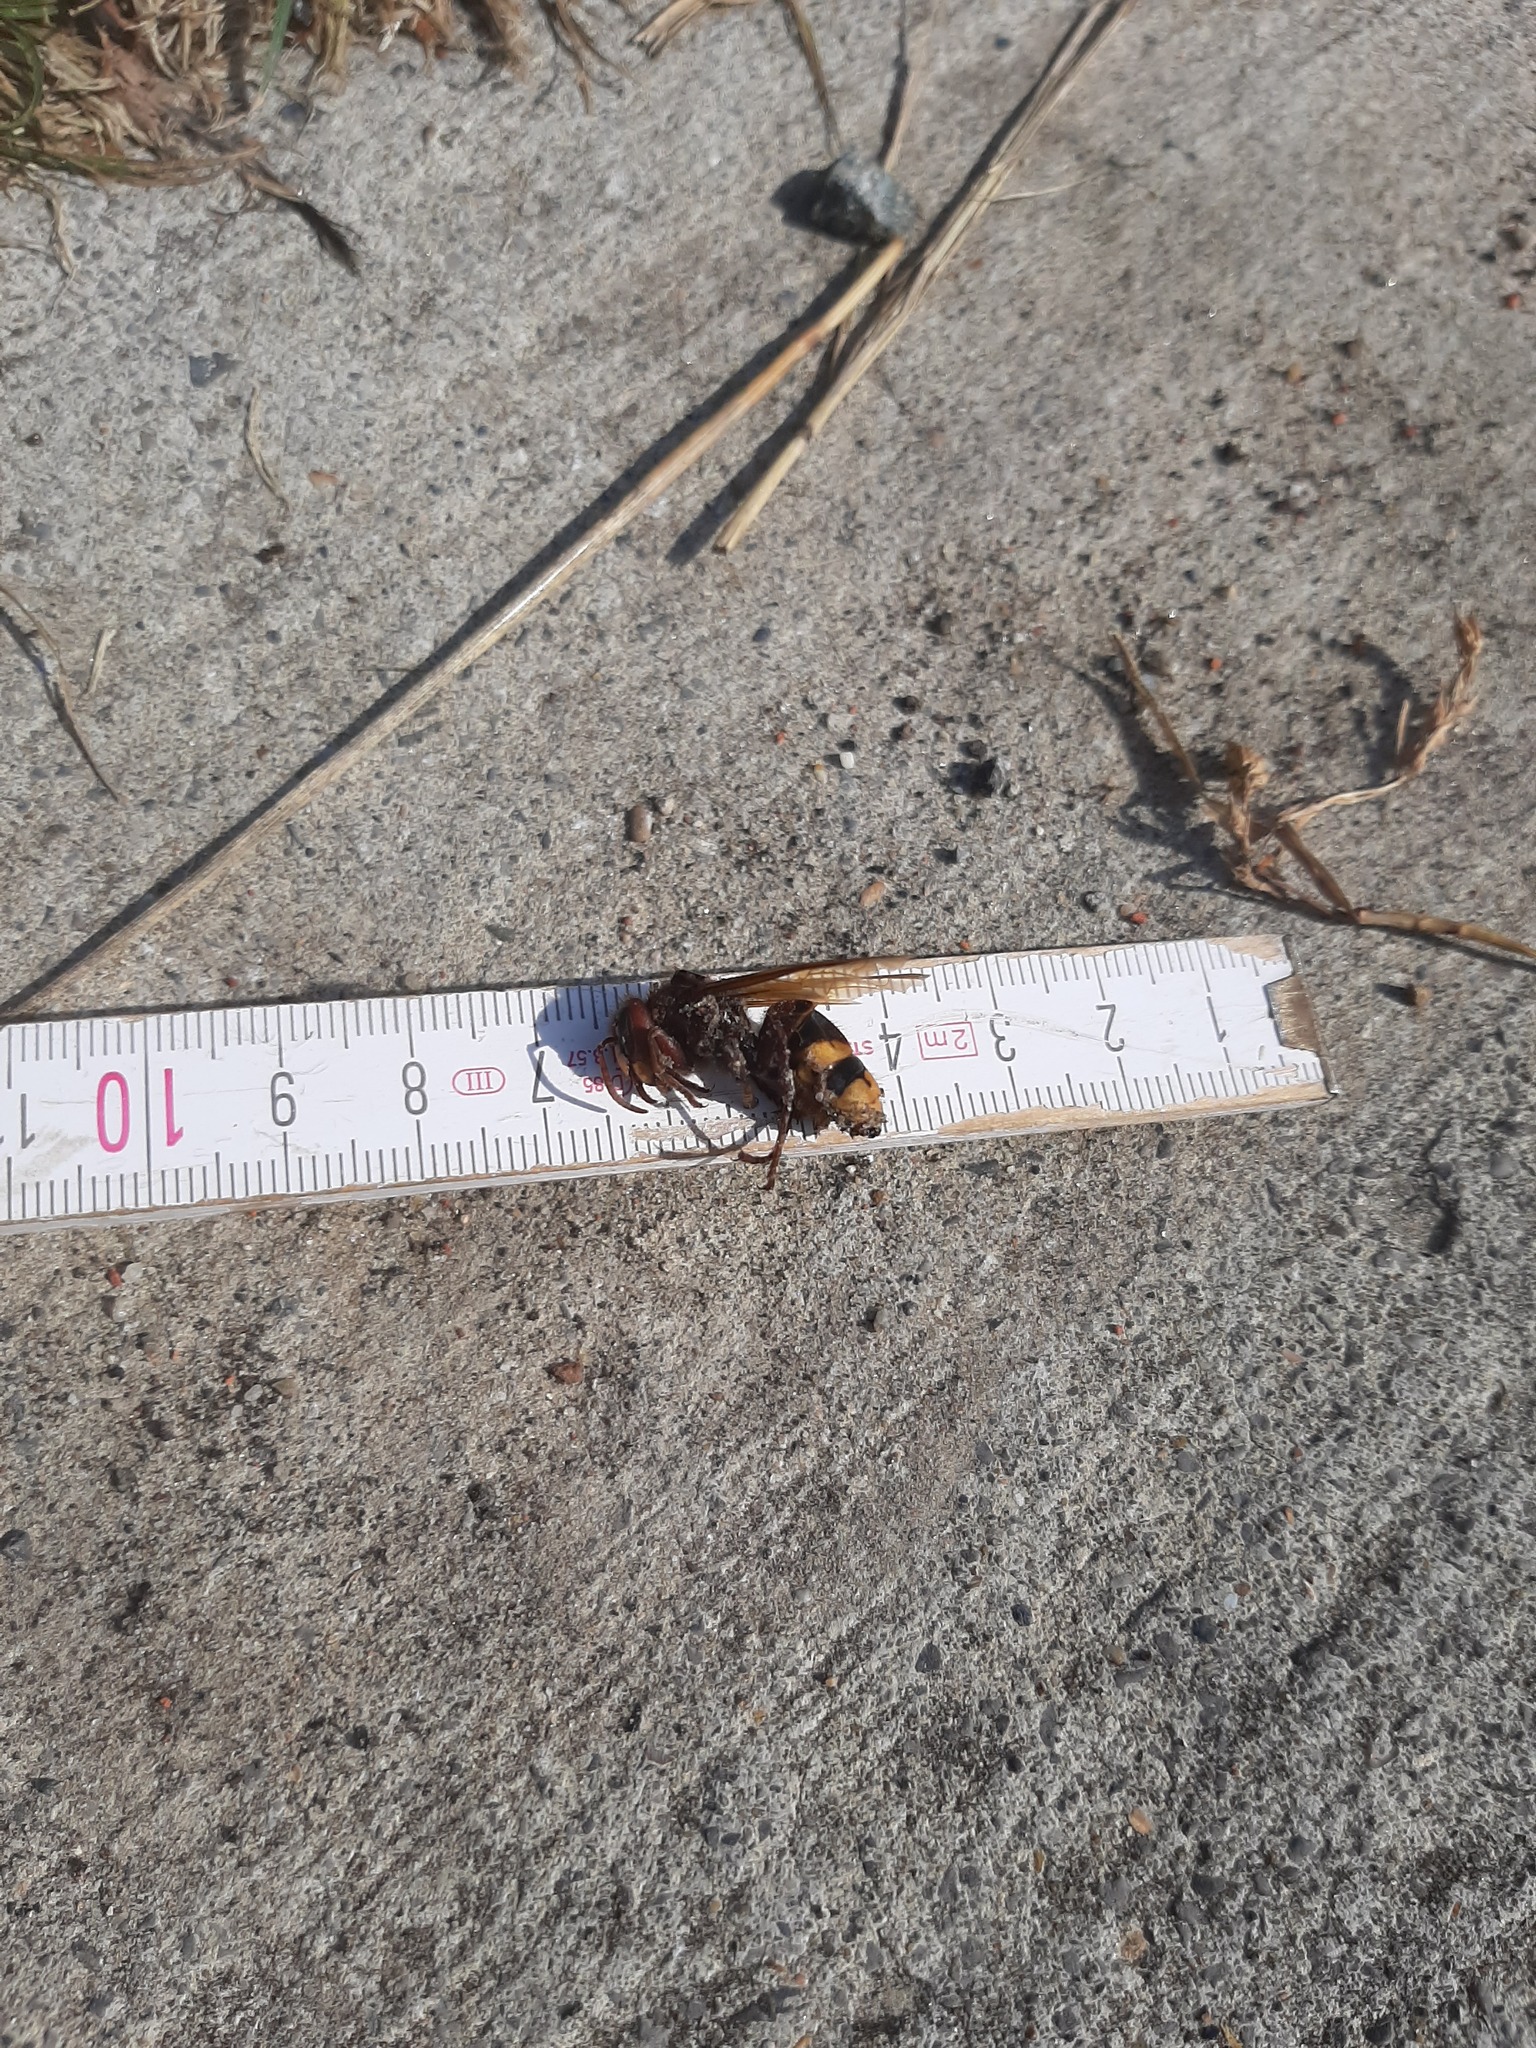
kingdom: Animalia
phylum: Arthropoda
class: Insecta
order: Hymenoptera
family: Vespidae
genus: Vespa
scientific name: Vespa crabro
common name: Hornet
